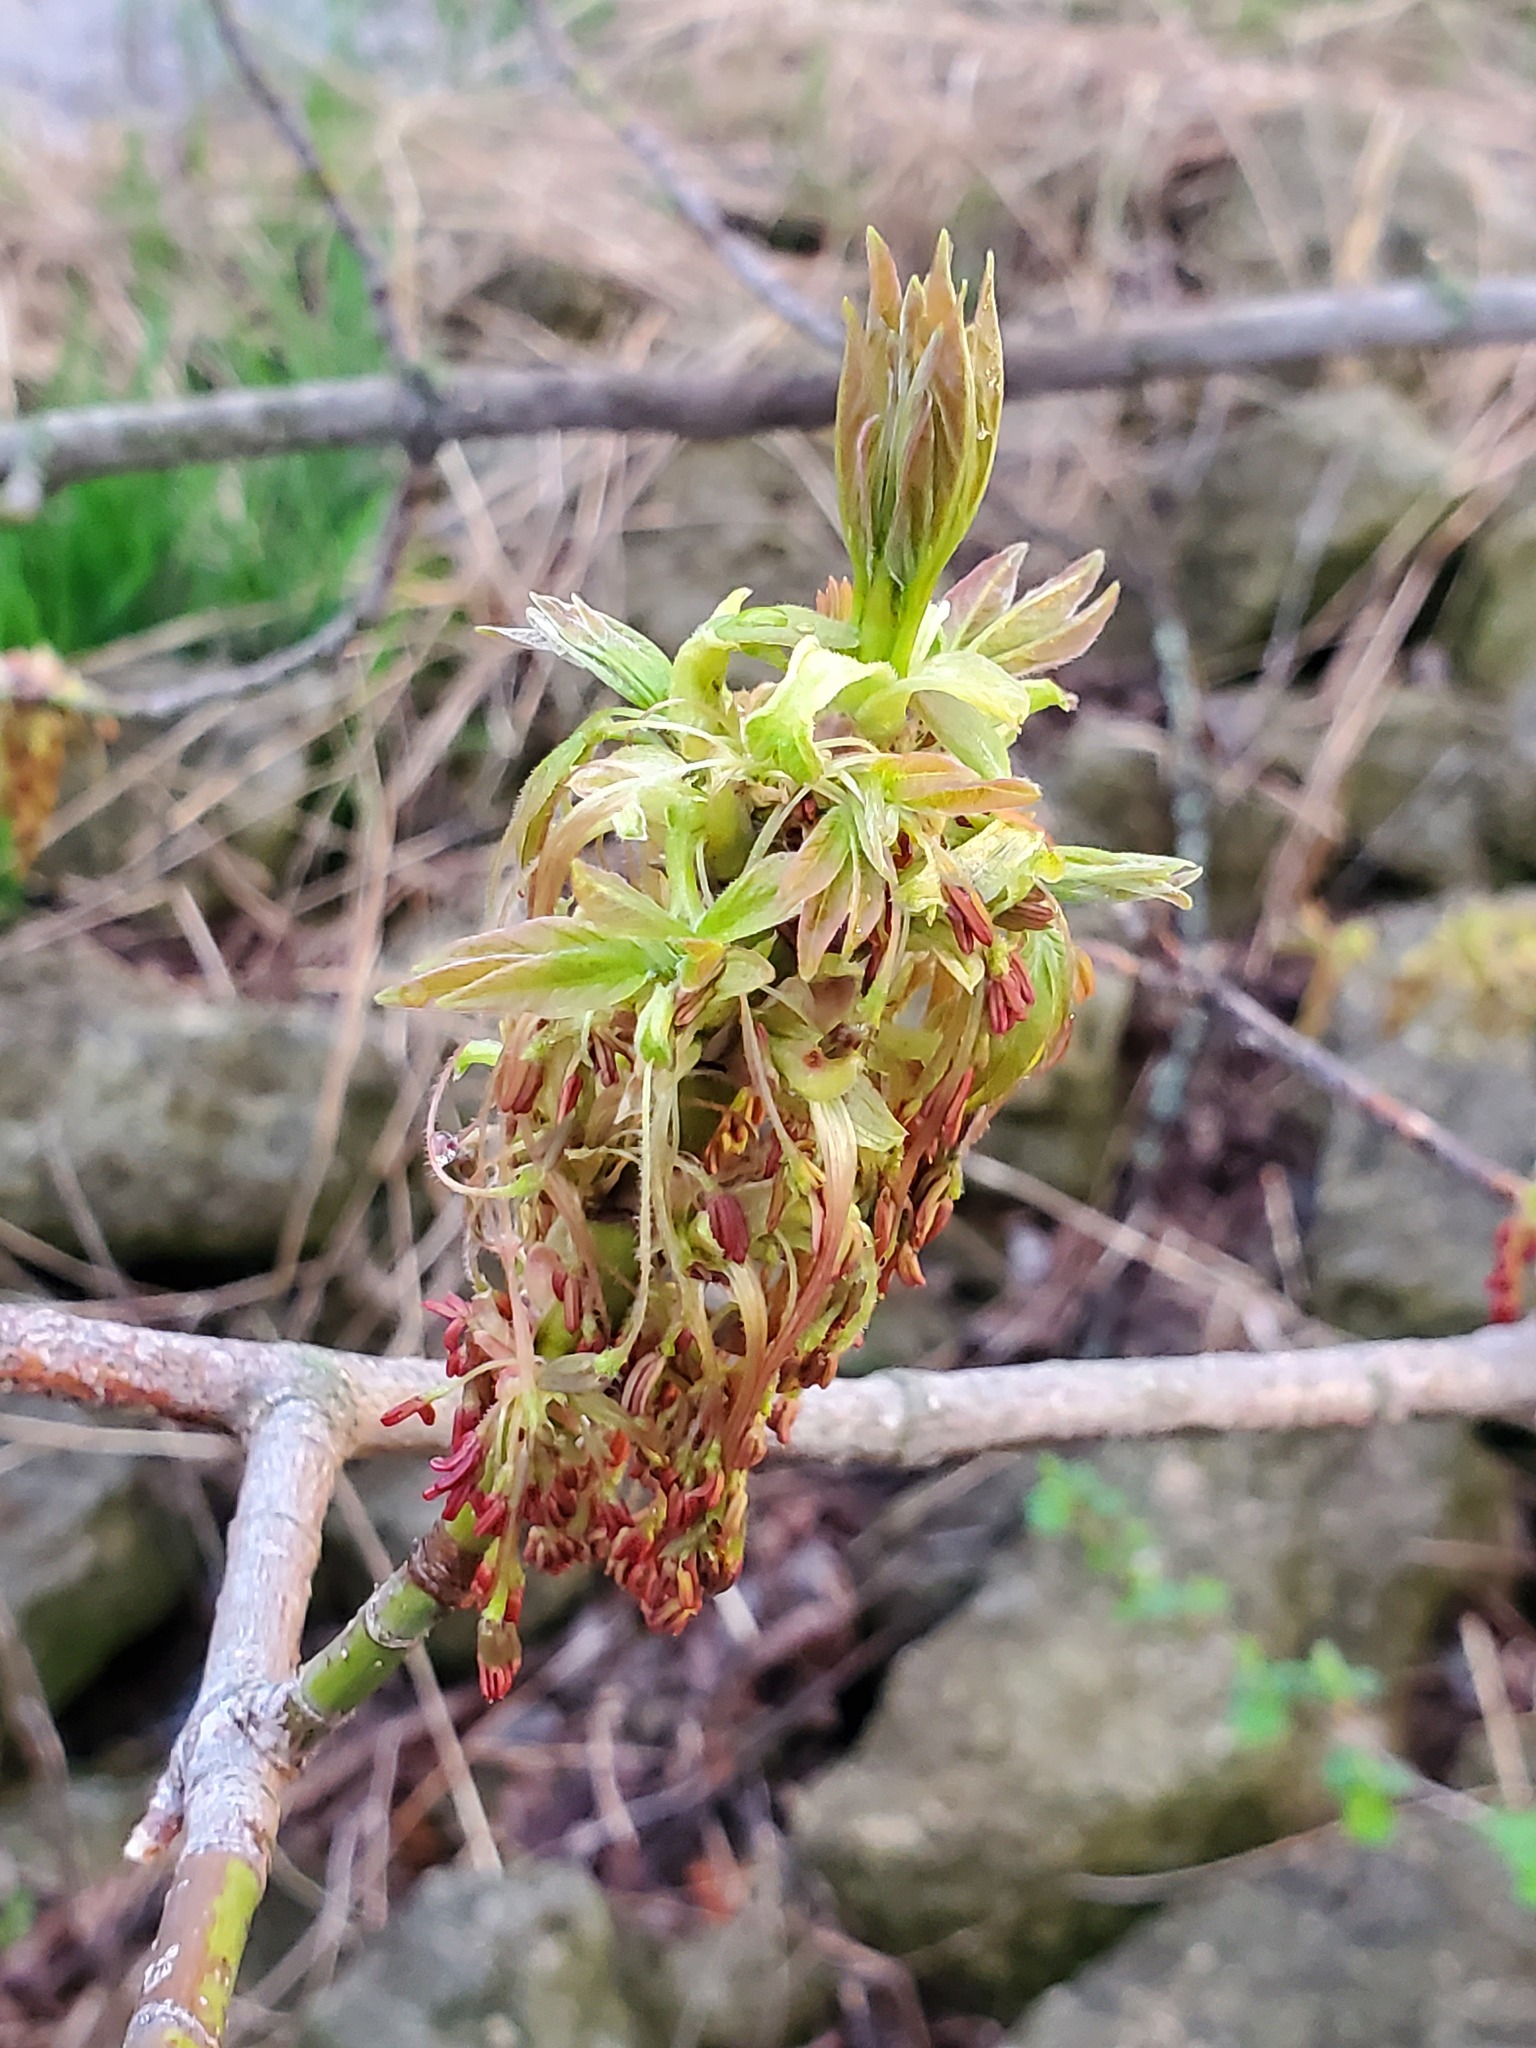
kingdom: Plantae
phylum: Tracheophyta
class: Magnoliopsida
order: Sapindales
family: Sapindaceae
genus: Acer
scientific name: Acer negundo
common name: Ashleaf maple
